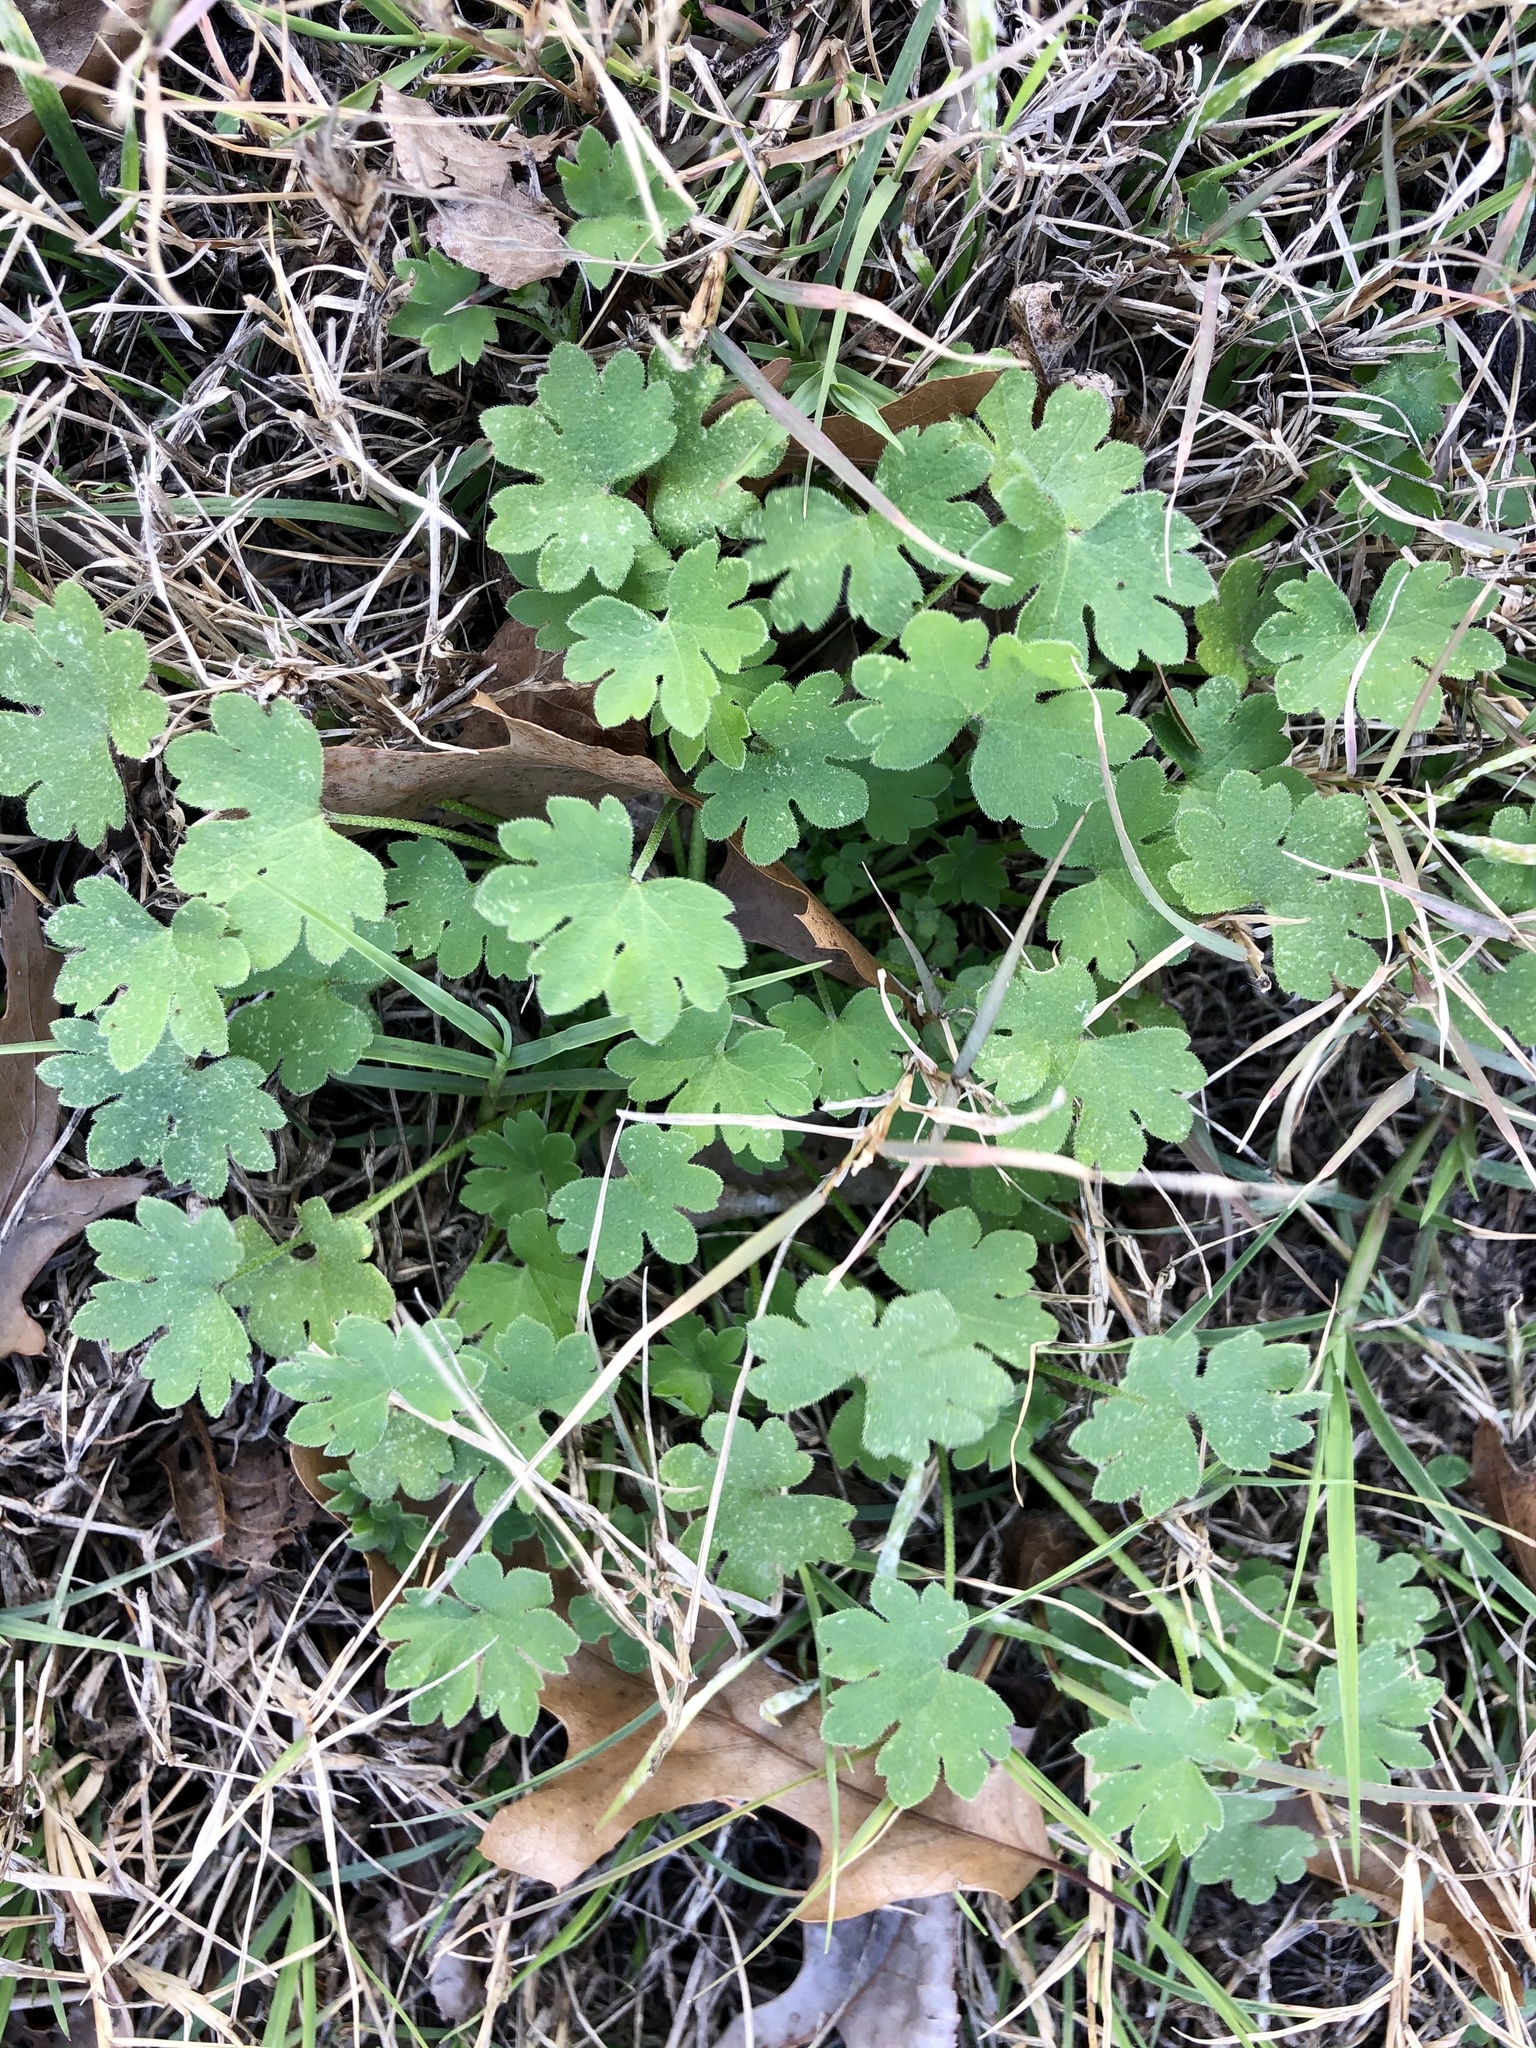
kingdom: Plantae
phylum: Tracheophyta
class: Magnoliopsida
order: Apiales
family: Apiaceae
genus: Bowlesia
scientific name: Bowlesia incana
